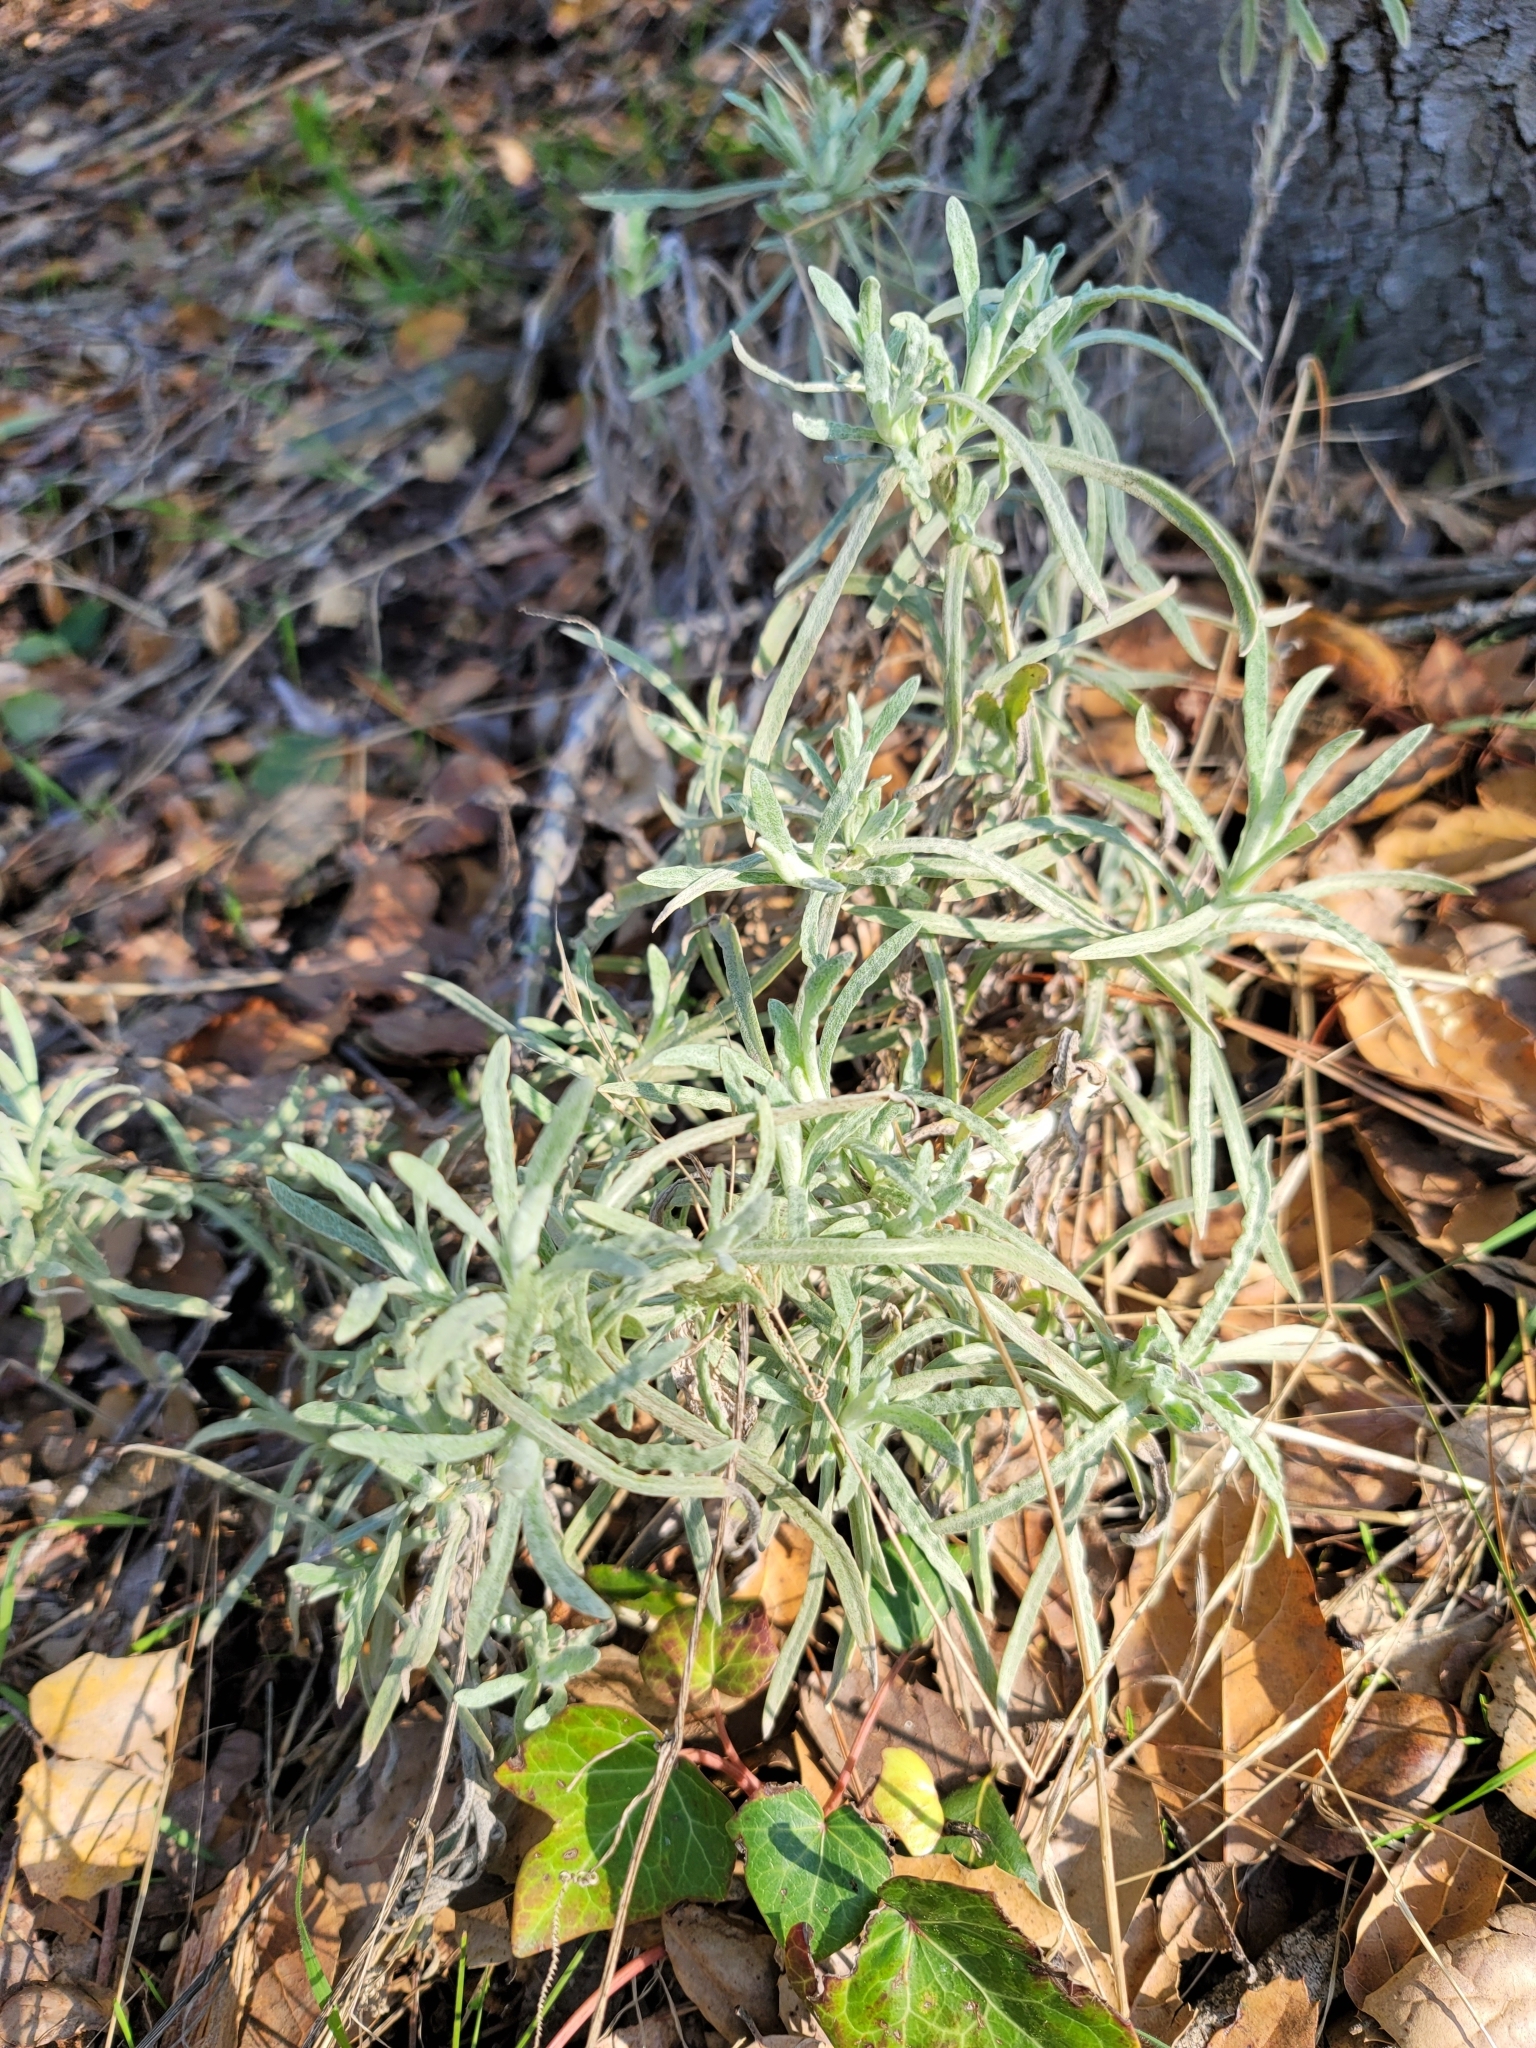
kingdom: Plantae
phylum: Tracheophyta
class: Magnoliopsida
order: Asterales
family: Asteraceae
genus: Pseudognaphalium
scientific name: Pseudognaphalium beneolens
